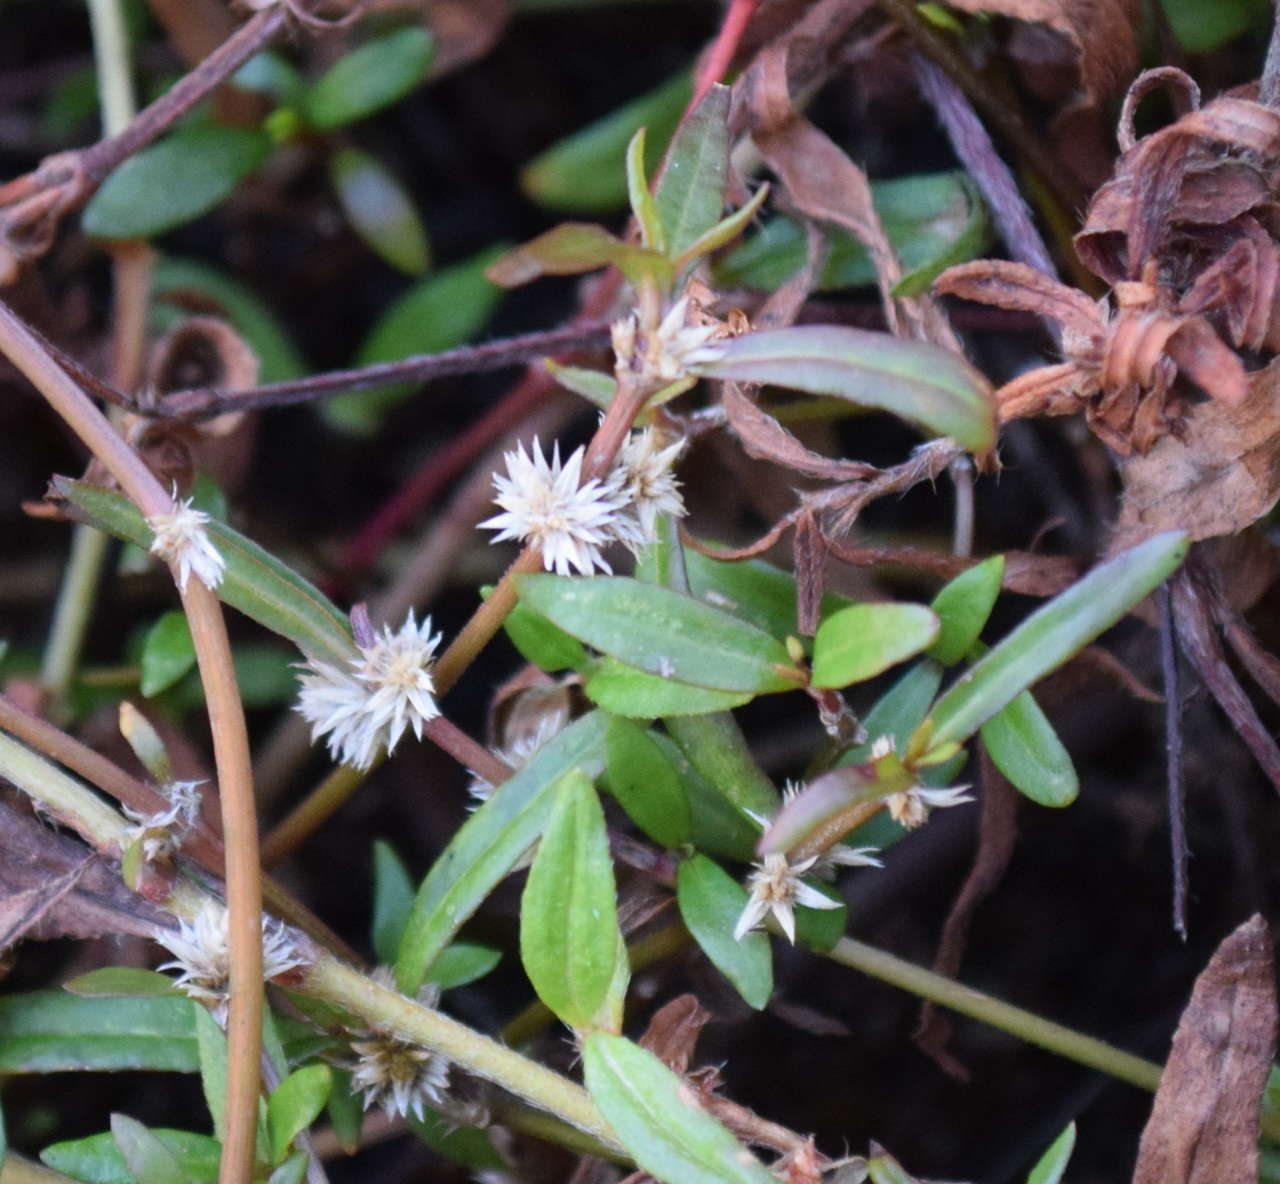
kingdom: Plantae
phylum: Tracheophyta
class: Magnoliopsida
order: Caryophyllales
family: Amaranthaceae
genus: Alternanthera
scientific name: Alternanthera denticulata
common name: Lesser joyweed
